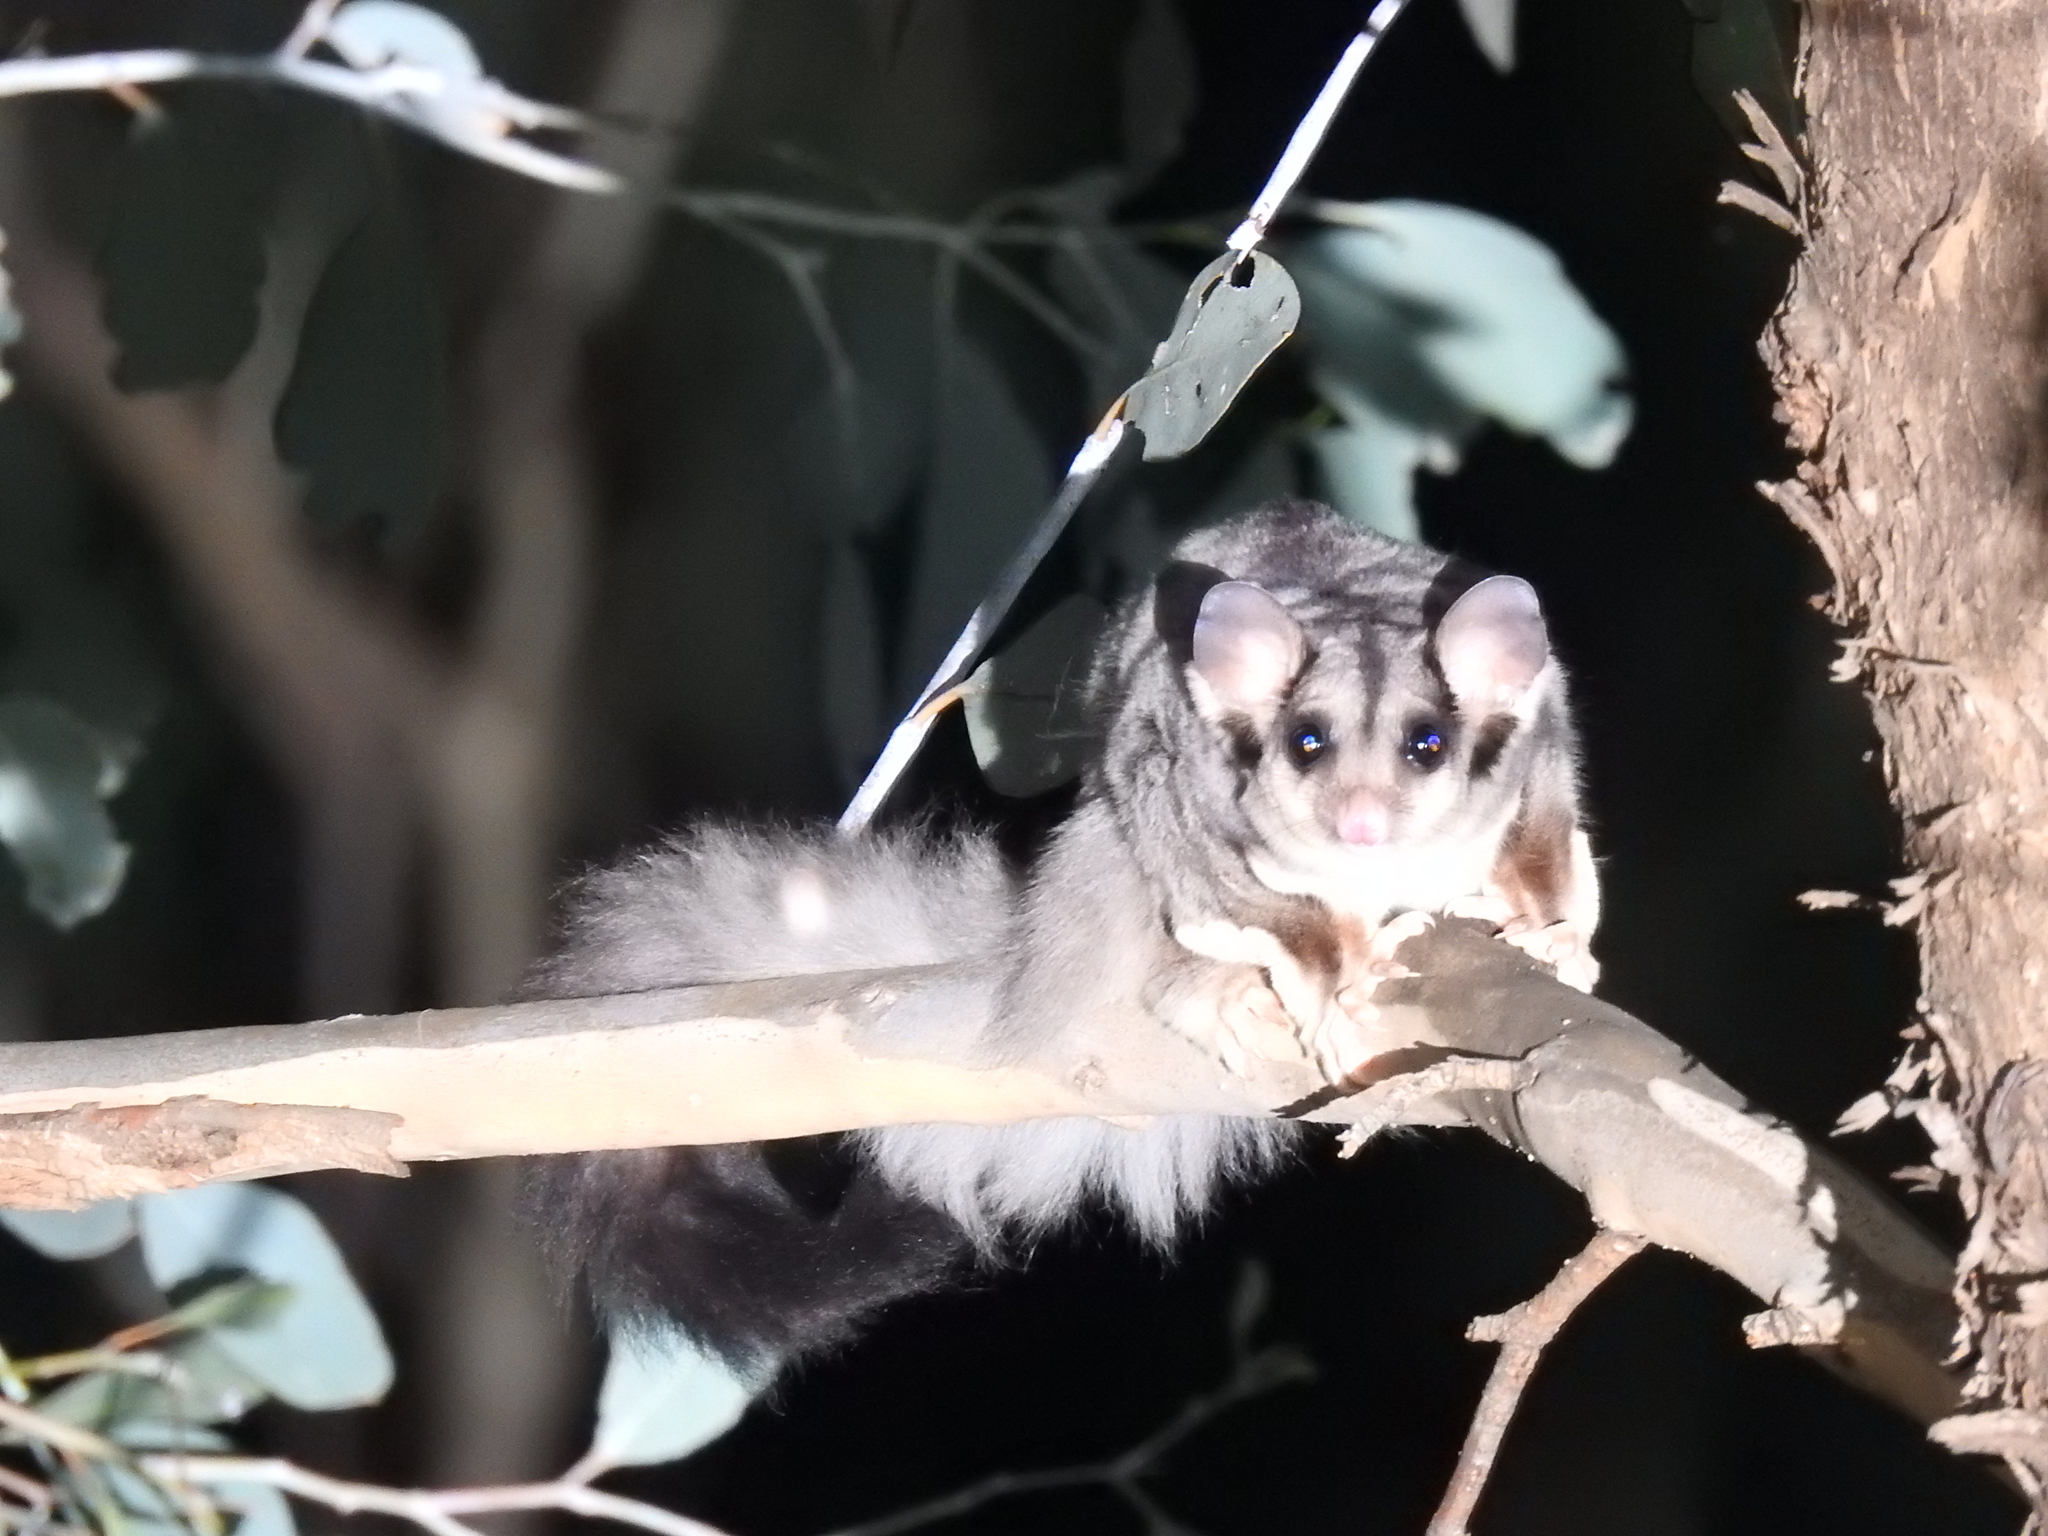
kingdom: Animalia
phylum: Chordata
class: Mammalia
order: Diprotodontia
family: Petauridae
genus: Petaurus
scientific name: Petaurus norfolcensis
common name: Squirrel glider
